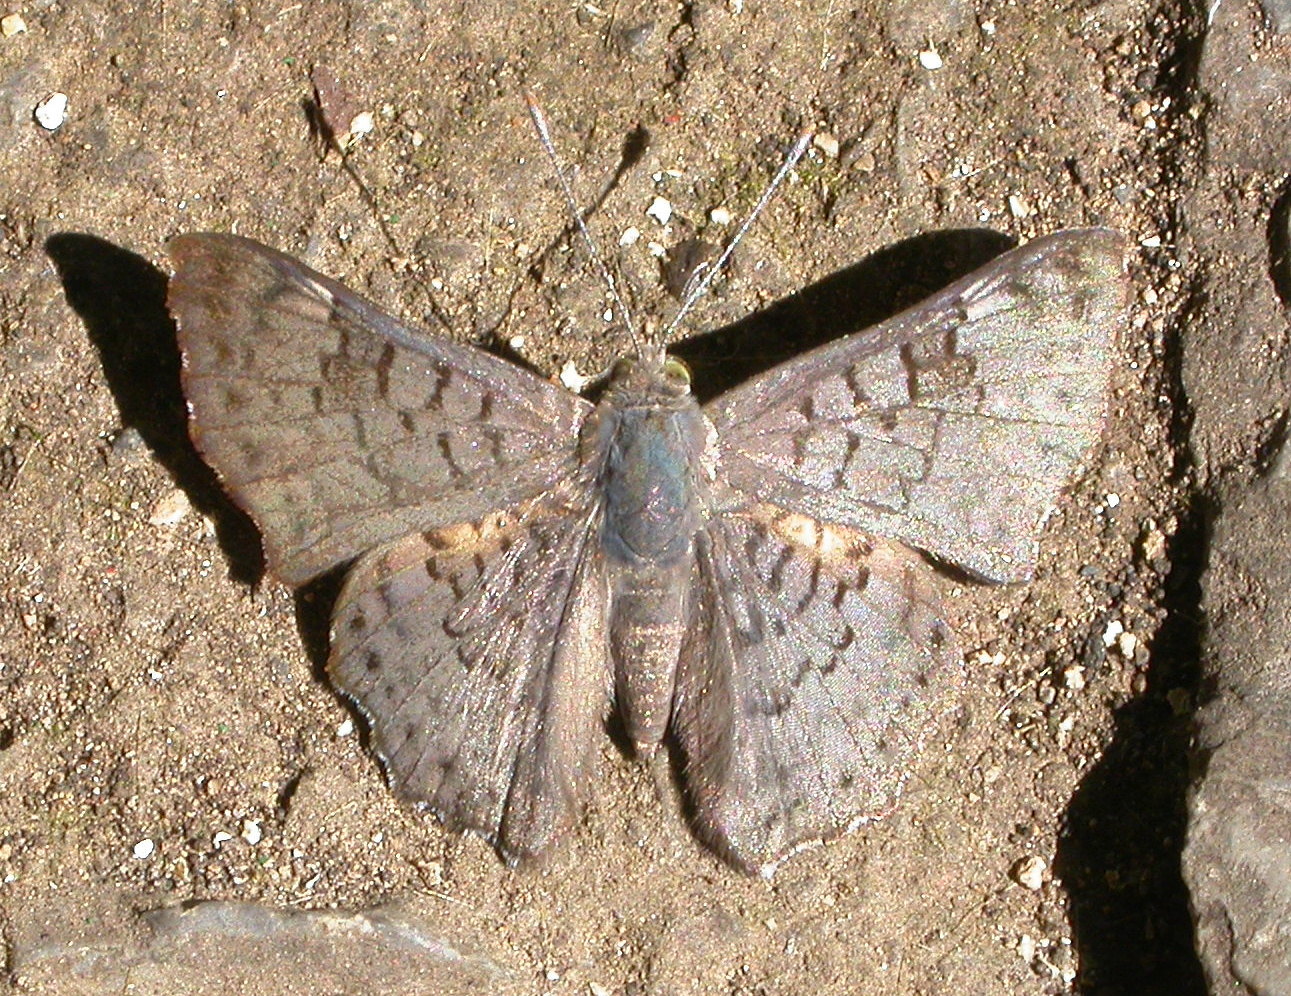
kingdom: Animalia
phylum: Arthropoda
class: Insecta
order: Lepidoptera
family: Riodinidae
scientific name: Riodinidae
